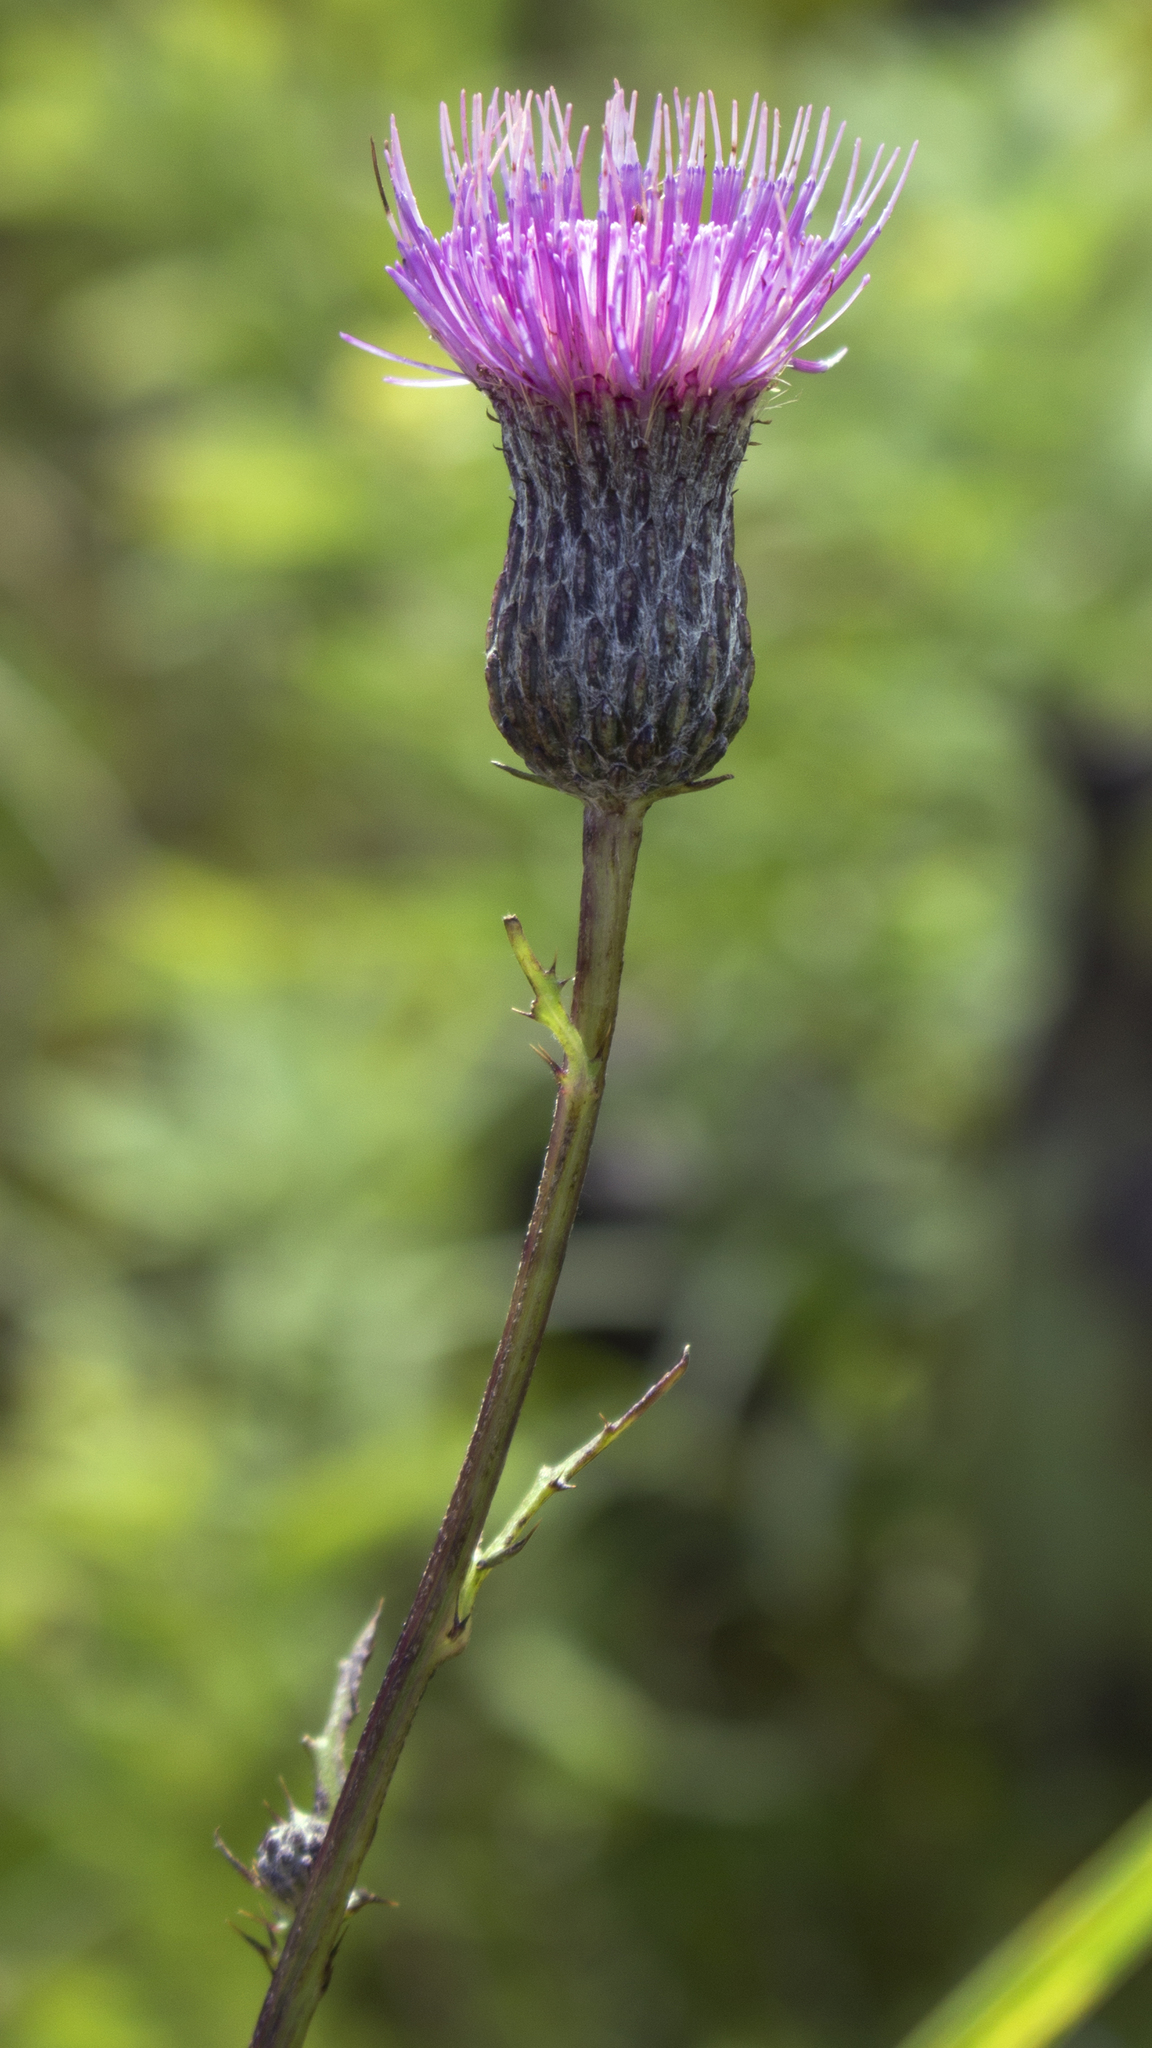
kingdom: Plantae
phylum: Tracheophyta
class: Magnoliopsida
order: Asterales
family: Asteraceae
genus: Cirsium
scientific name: Cirsium muticum
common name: Dunce-nettle
